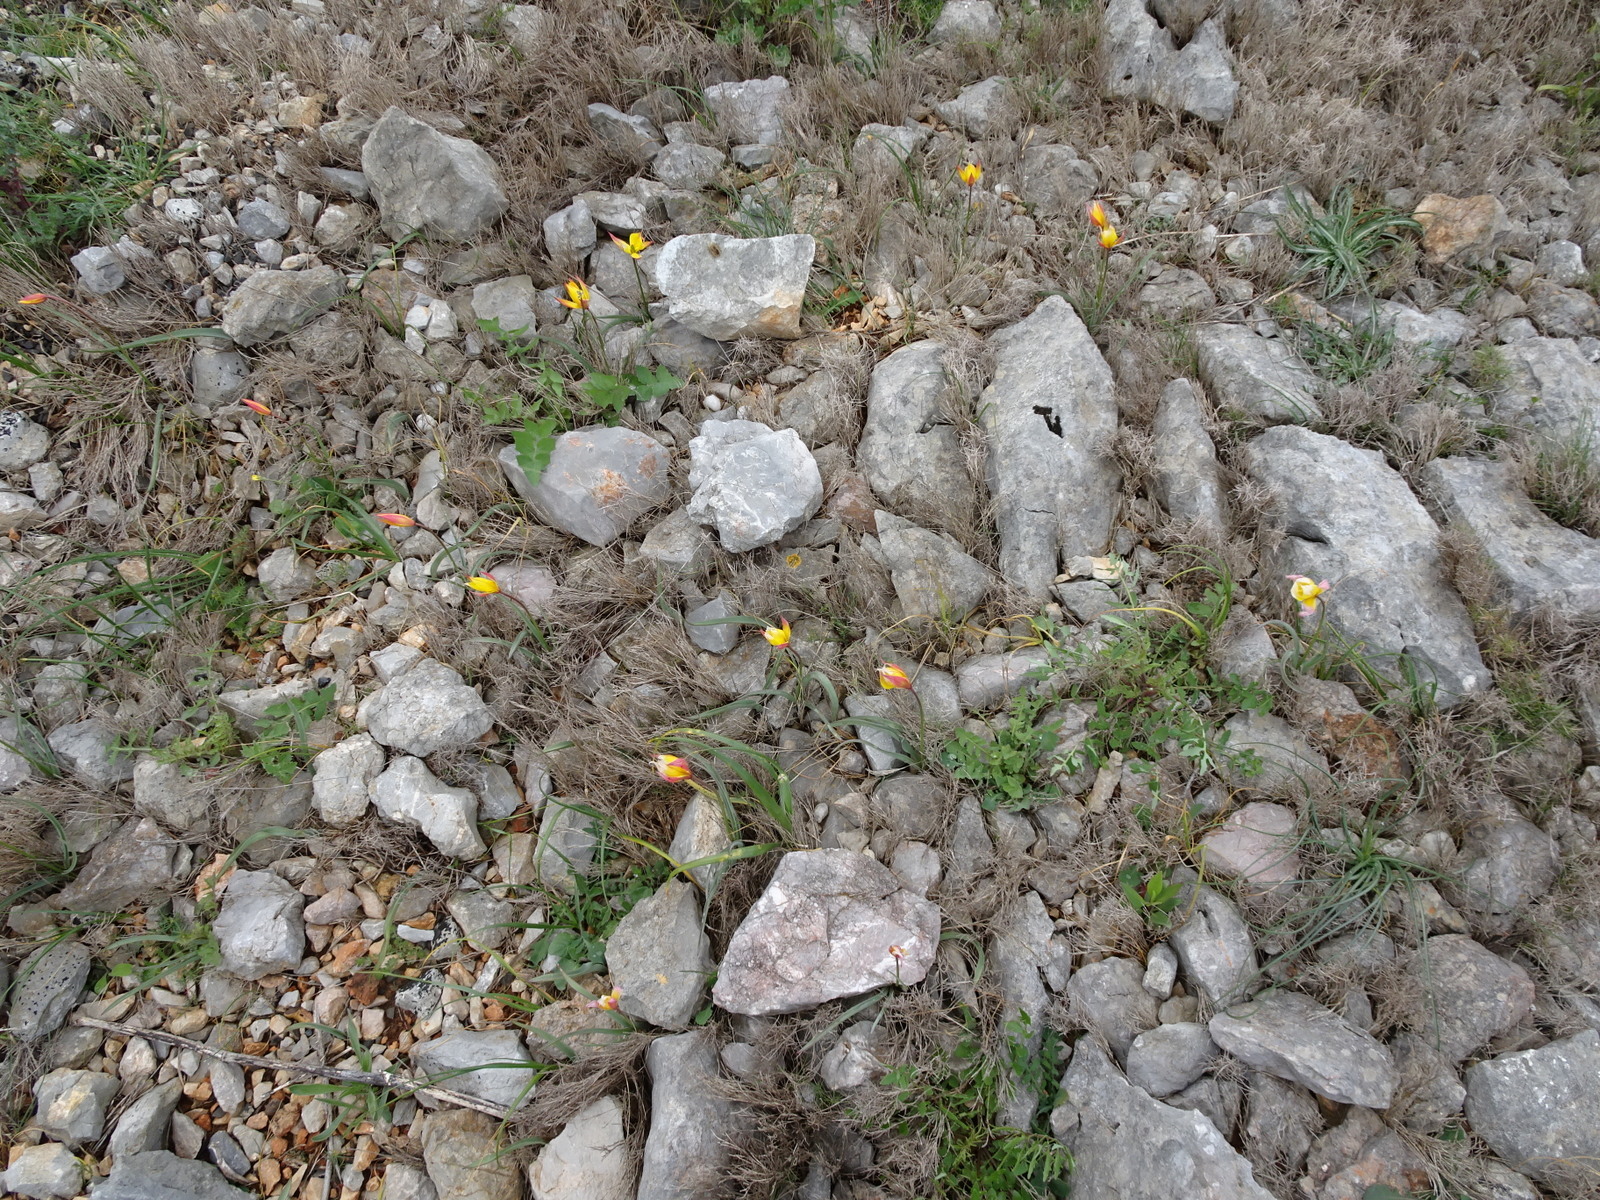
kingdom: Plantae
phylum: Tracheophyta
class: Liliopsida
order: Liliales
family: Liliaceae
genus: Tulipa
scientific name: Tulipa sylvestris
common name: Wild tulip
